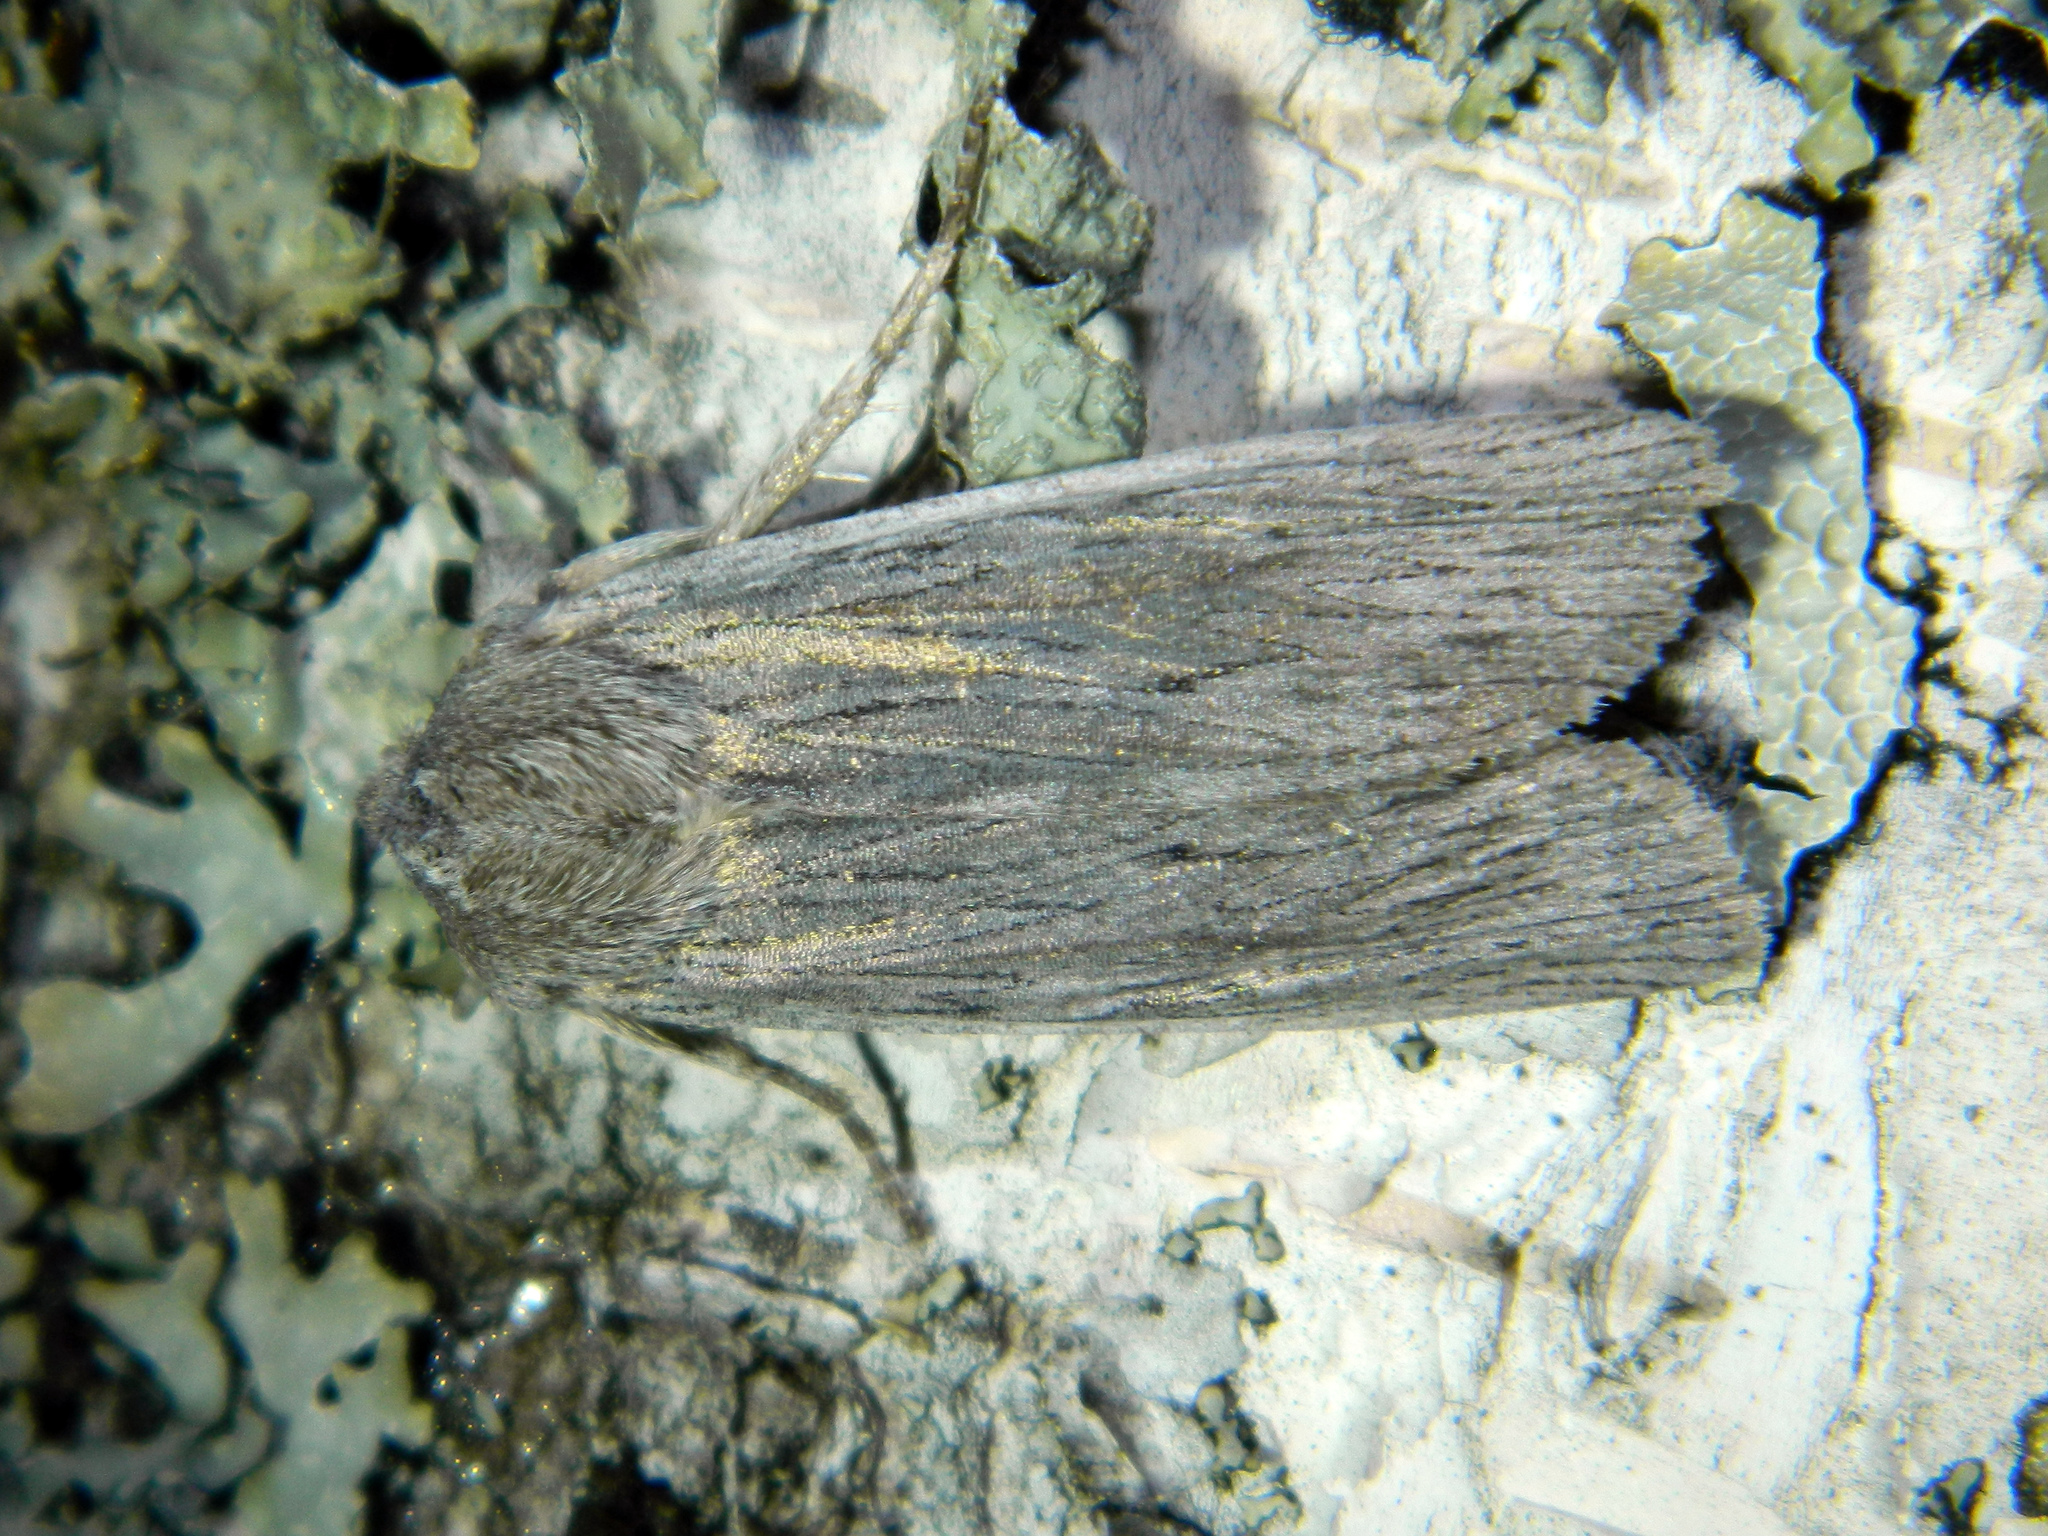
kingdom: Animalia
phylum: Arthropoda
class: Insecta
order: Lepidoptera
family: Noctuidae
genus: Lithophane
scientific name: Lithophane fagina
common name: Hoary pinion moth
